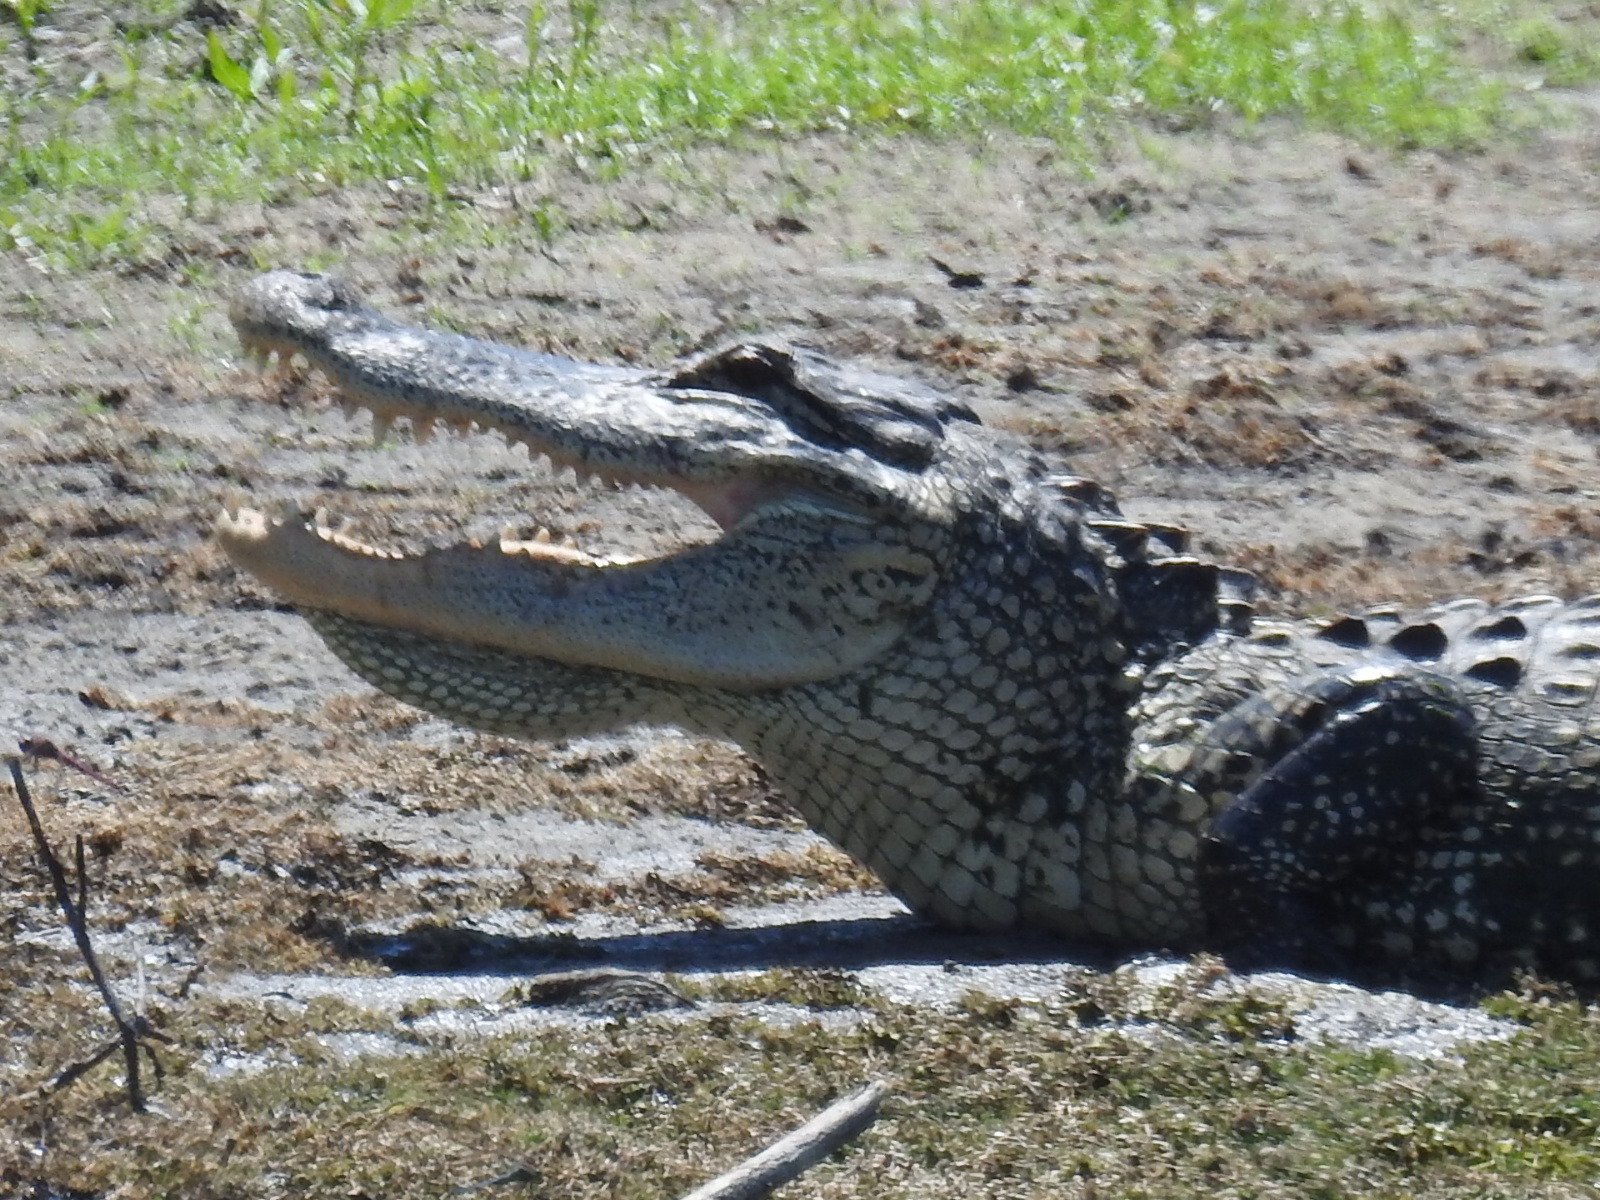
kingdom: Animalia
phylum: Chordata
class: Crocodylia
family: Alligatoridae
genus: Alligator
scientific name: Alligator mississippiensis
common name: American alligator
